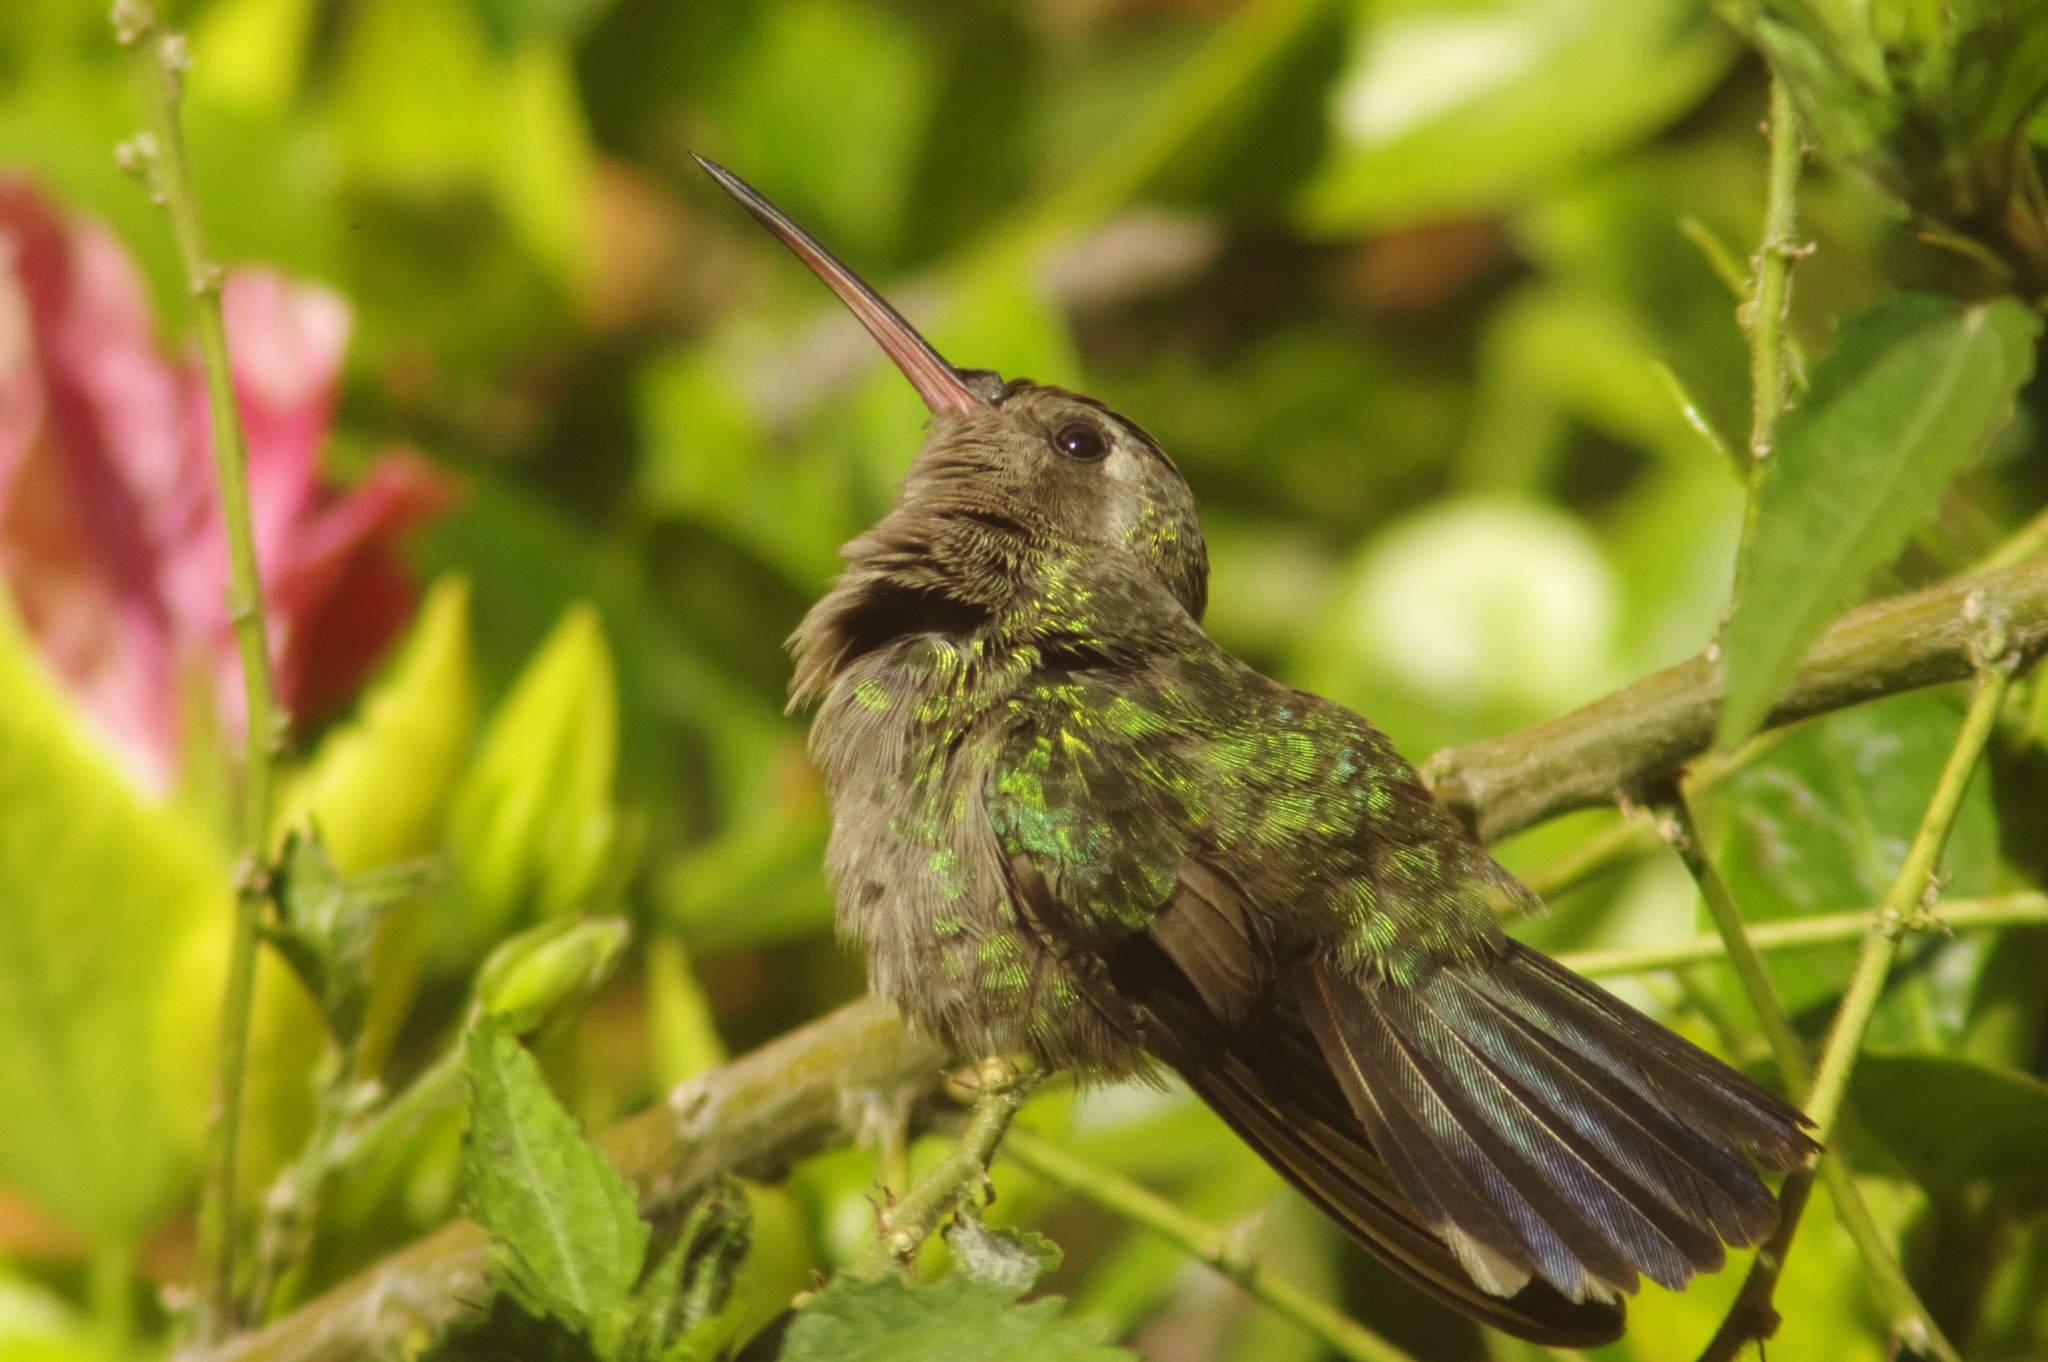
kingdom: Animalia
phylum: Chordata
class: Aves
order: Apodiformes
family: Trochilidae
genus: Cynanthus
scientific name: Cynanthus latirostris
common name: Broad-billed hummingbird
